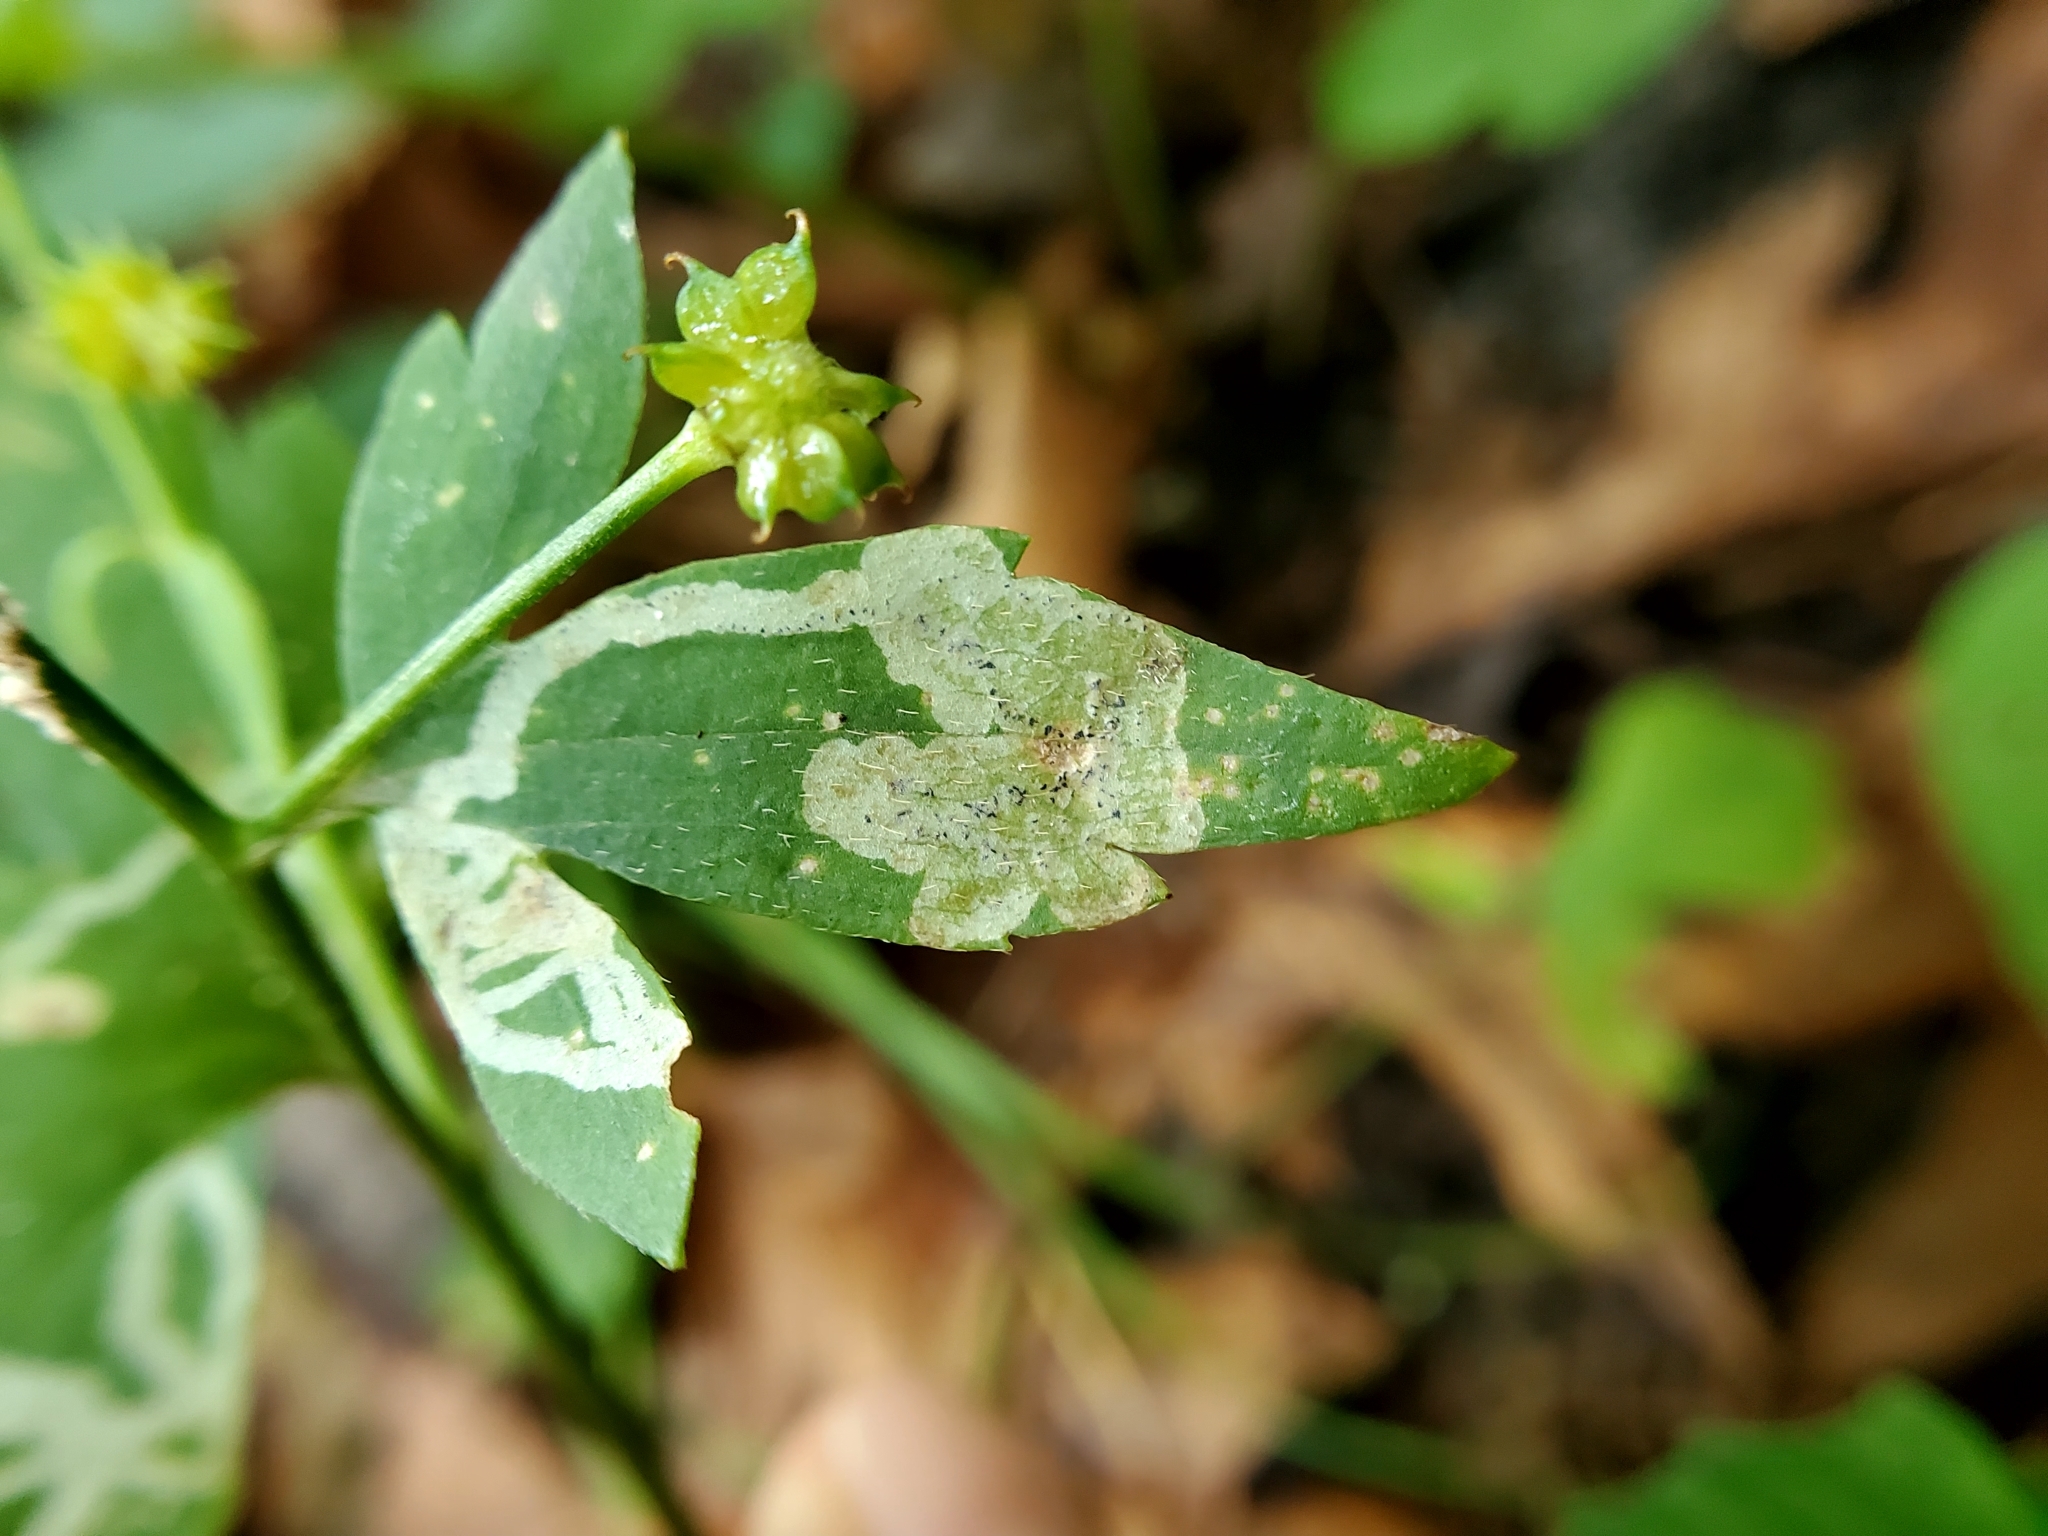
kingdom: Animalia
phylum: Arthropoda
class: Insecta
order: Diptera
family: Agromyzidae
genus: Phytomyza
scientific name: Phytomyza loewii
